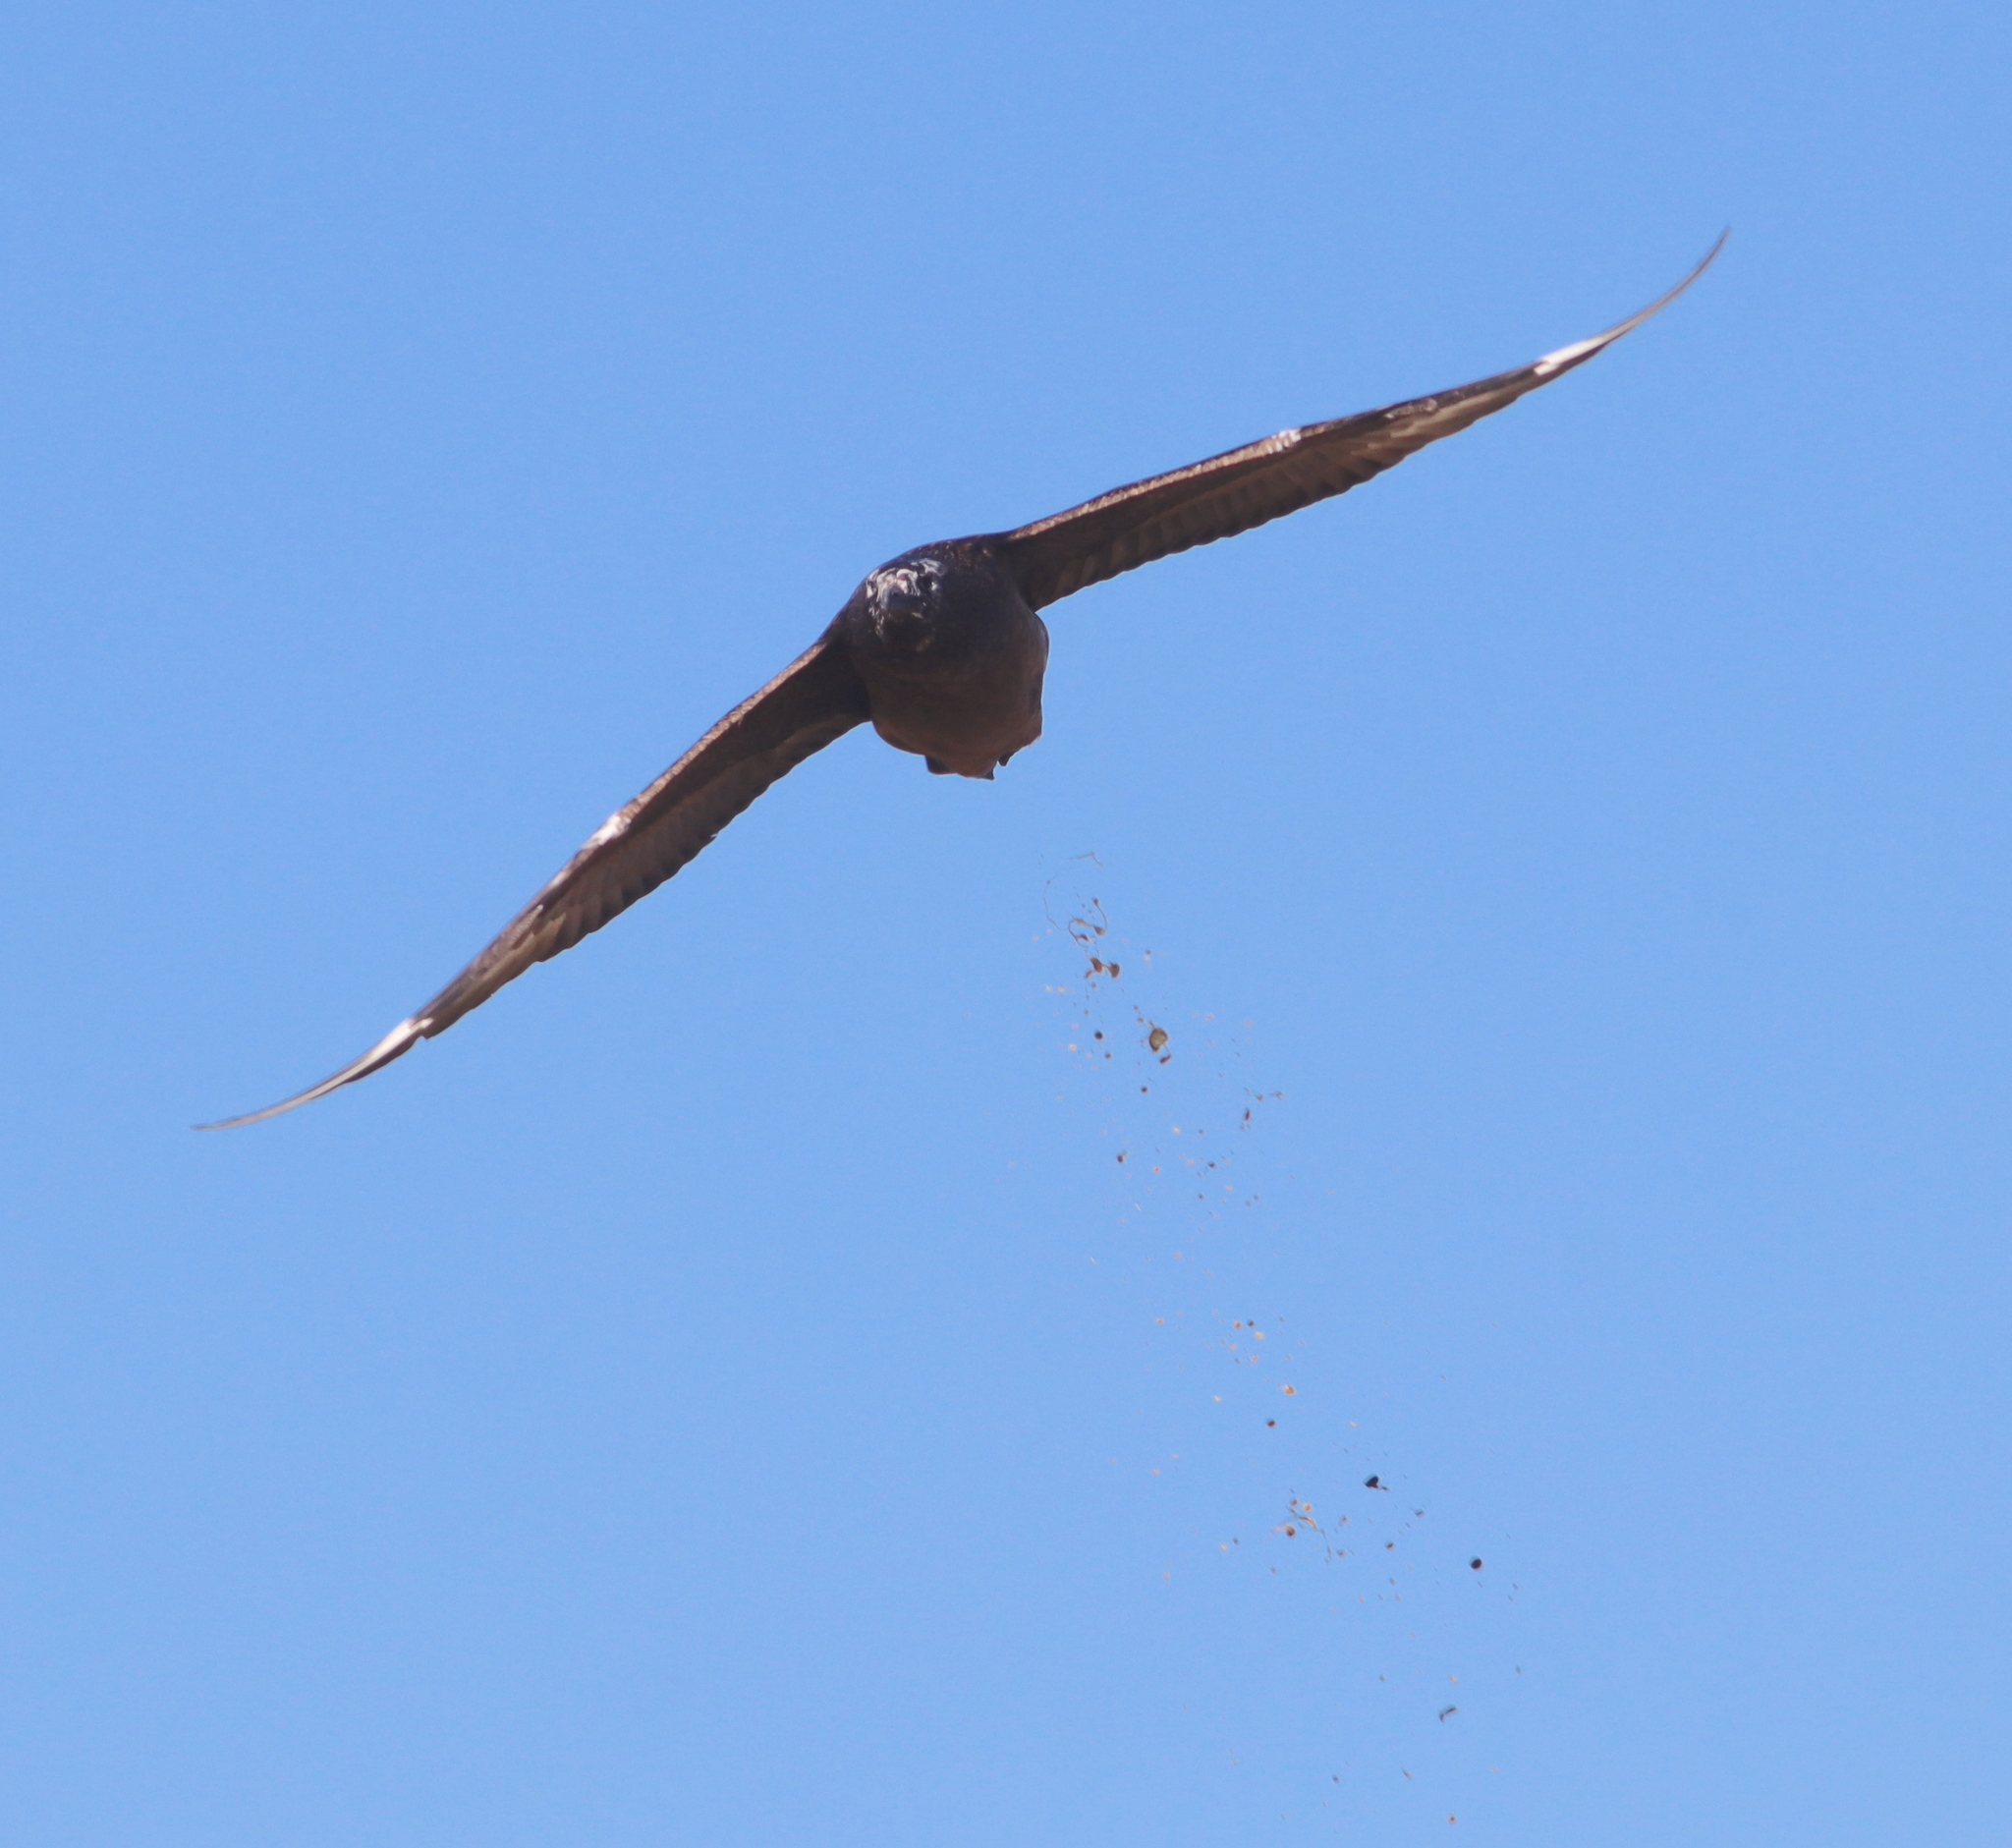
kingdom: Animalia
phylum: Chordata
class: Aves
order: Charadriiformes
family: Stercorariidae
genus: Stercorarius
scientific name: Stercorarius skua
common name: Great skua
